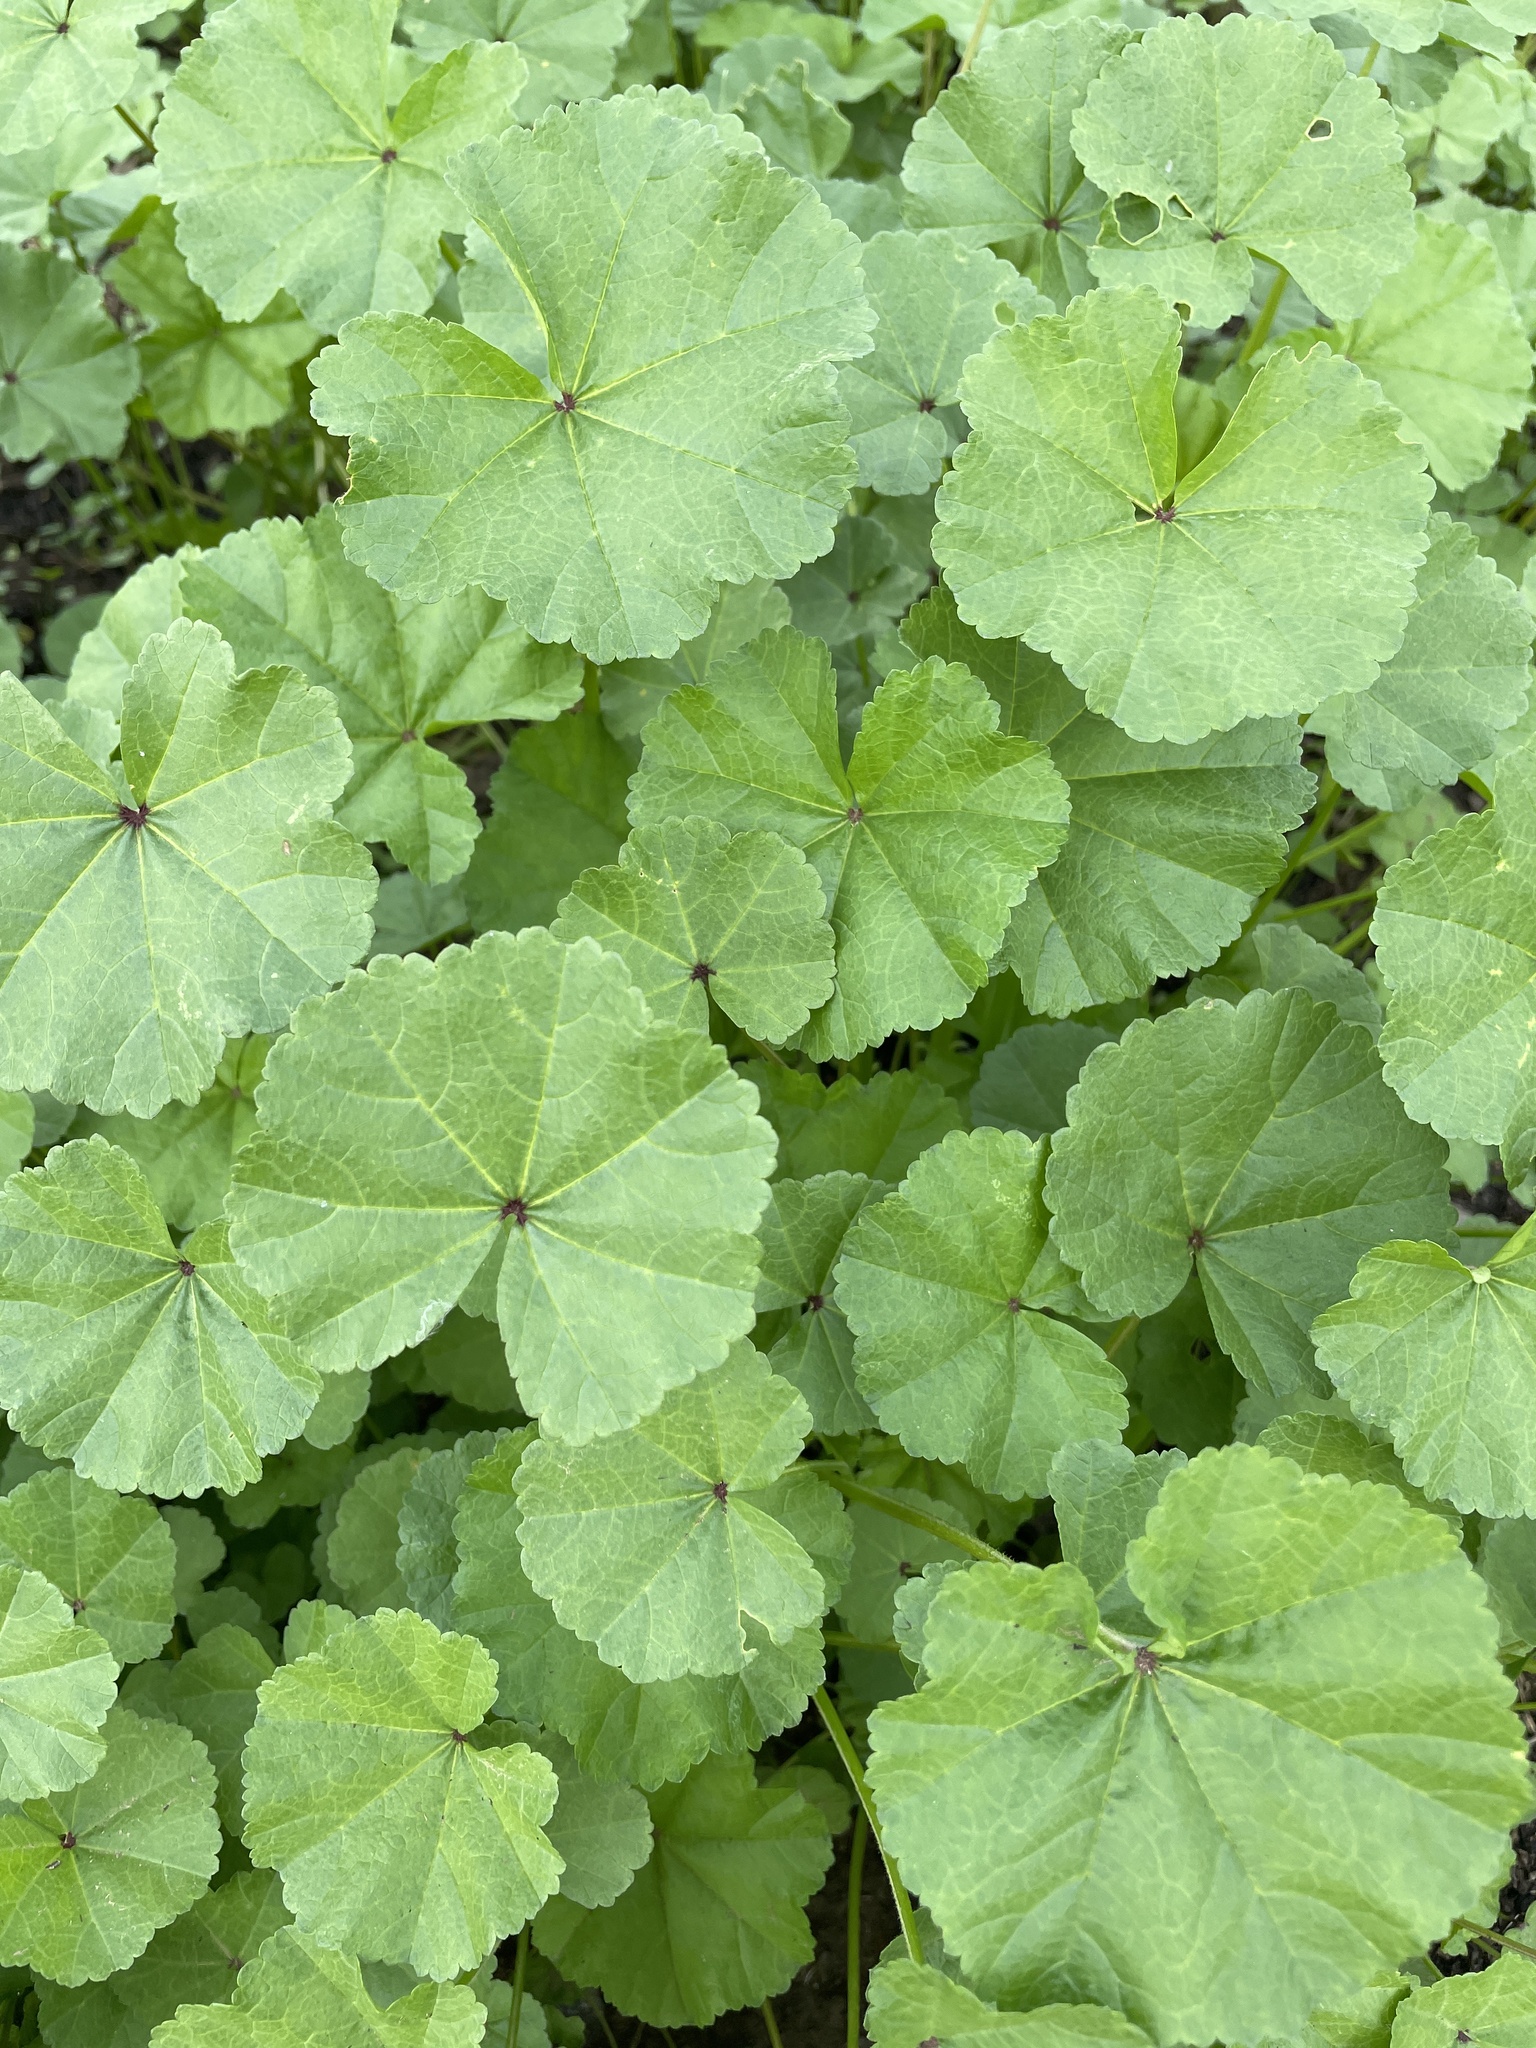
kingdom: Plantae
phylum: Tracheophyta
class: Magnoliopsida
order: Malvales
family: Malvaceae
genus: Malva
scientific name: Malva
